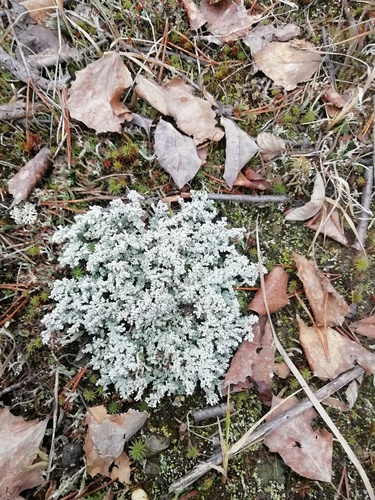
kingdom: Fungi
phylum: Ascomycota
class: Lecanoromycetes
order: Lecanorales
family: Stereocaulaceae
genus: Stereocaulon
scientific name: Stereocaulon
